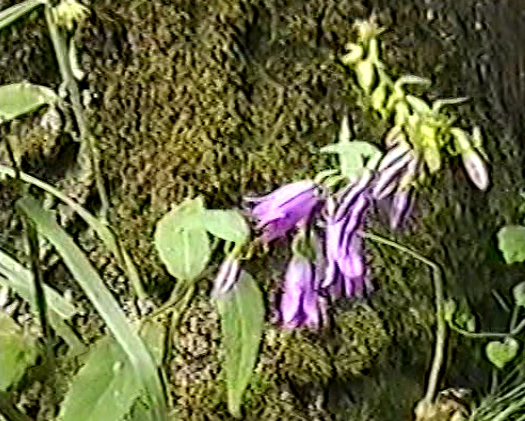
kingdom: Plantae
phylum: Tracheophyta
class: Magnoliopsida
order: Asterales
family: Campanulaceae
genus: Campanula
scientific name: Campanula rapunculoides
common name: Creeping bellflower
